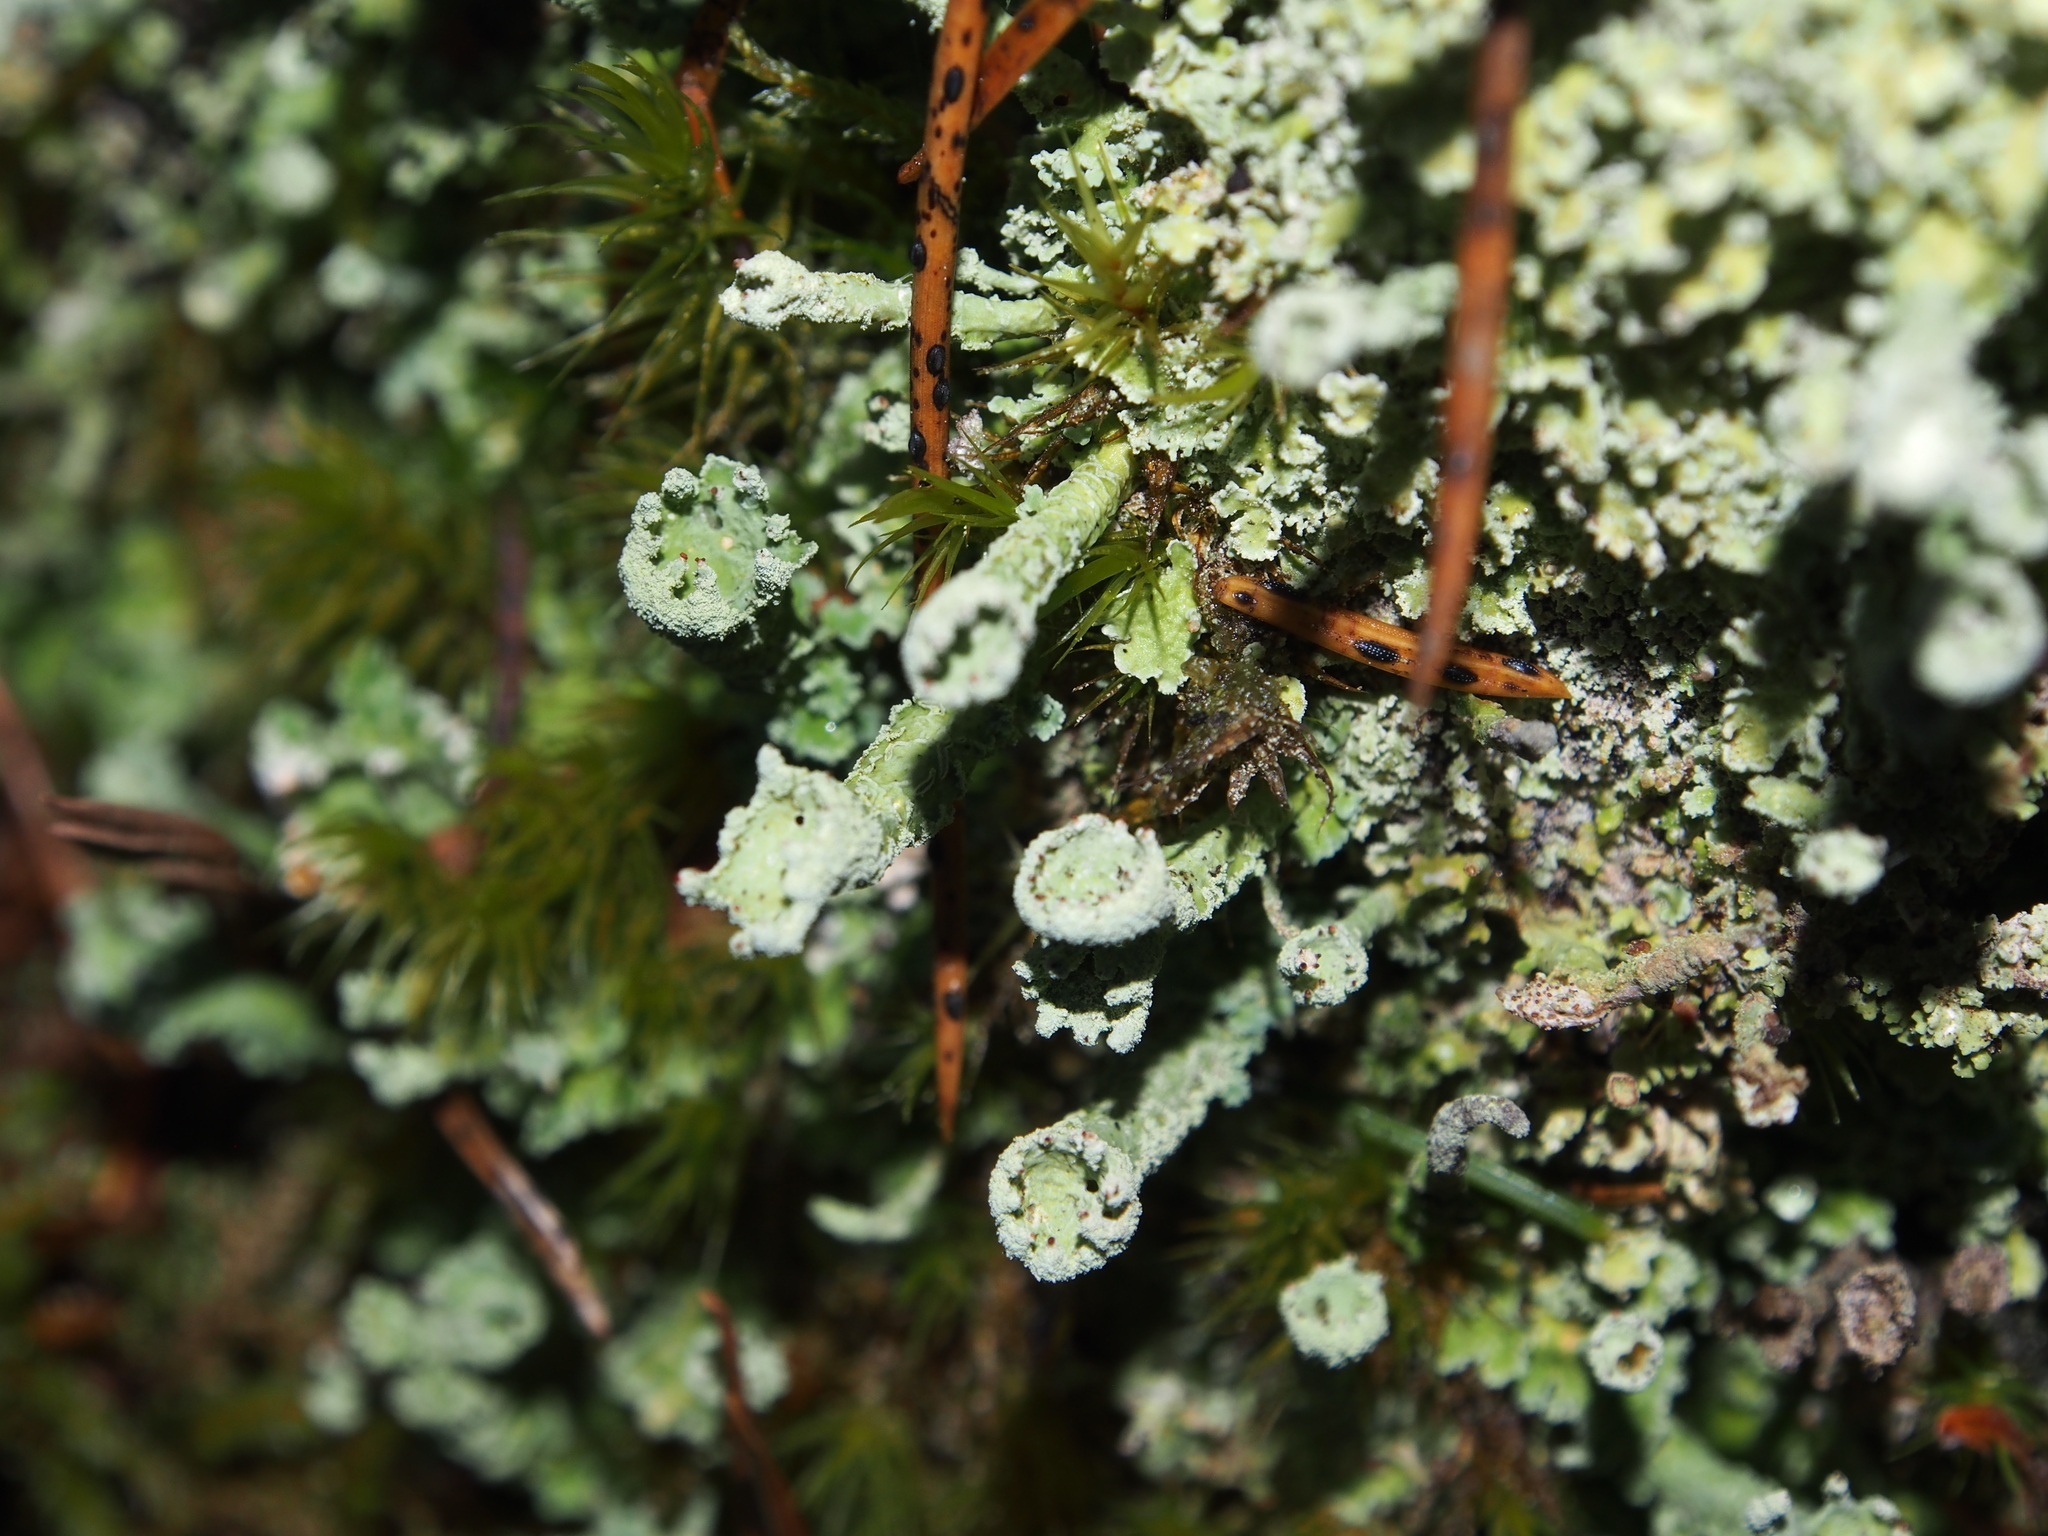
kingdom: Fungi
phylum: Ascomycota
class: Lecanoromycetes
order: Lecanorales
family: Cladoniaceae
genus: Cladonia
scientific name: Cladonia digitata
